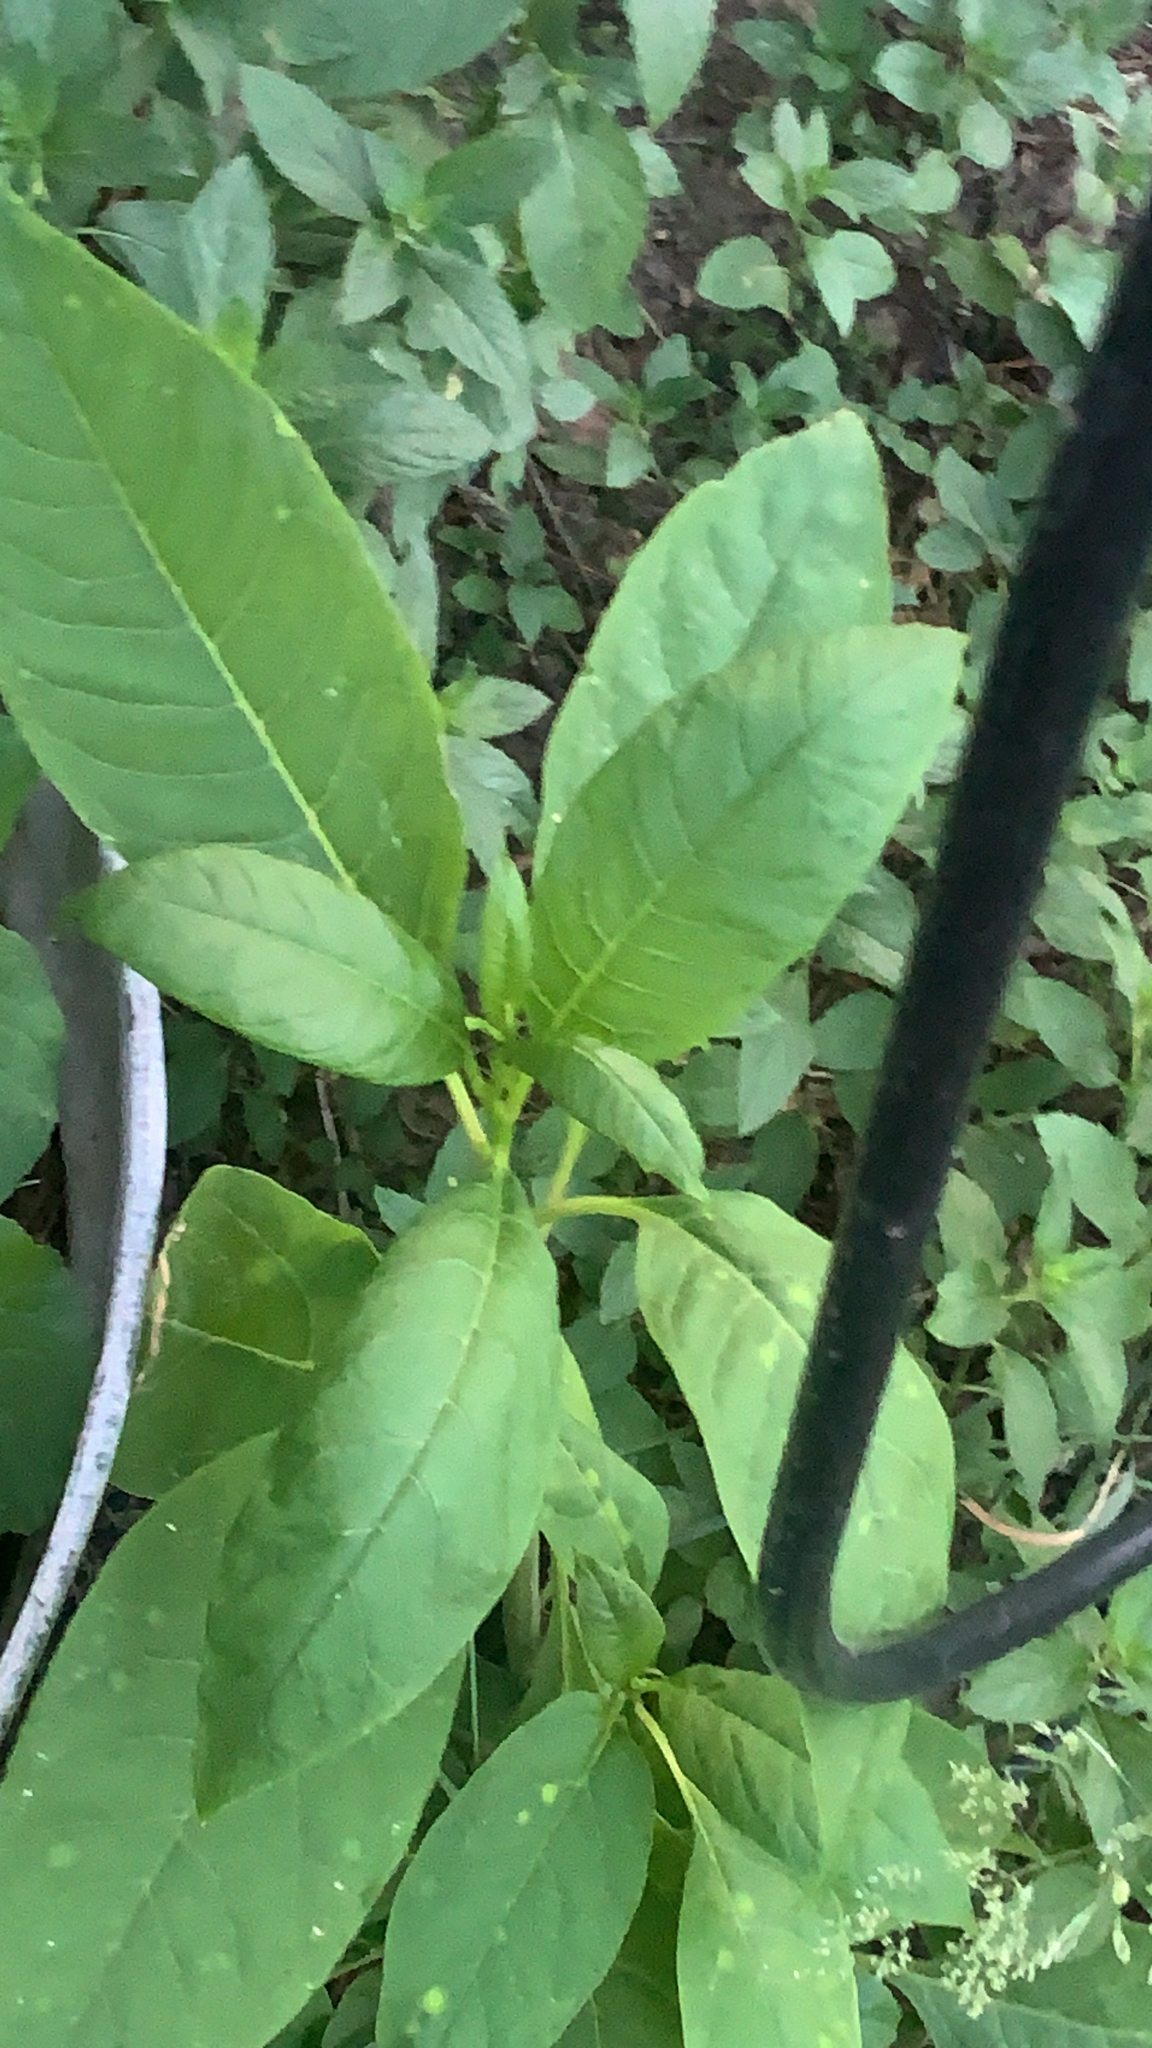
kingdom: Plantae
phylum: Tracheophyta
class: Magnoliopsida
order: Caryophyllales
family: Phytolaccaceae
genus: Phytolacca
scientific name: Phytolacca americana
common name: American pokeweed
